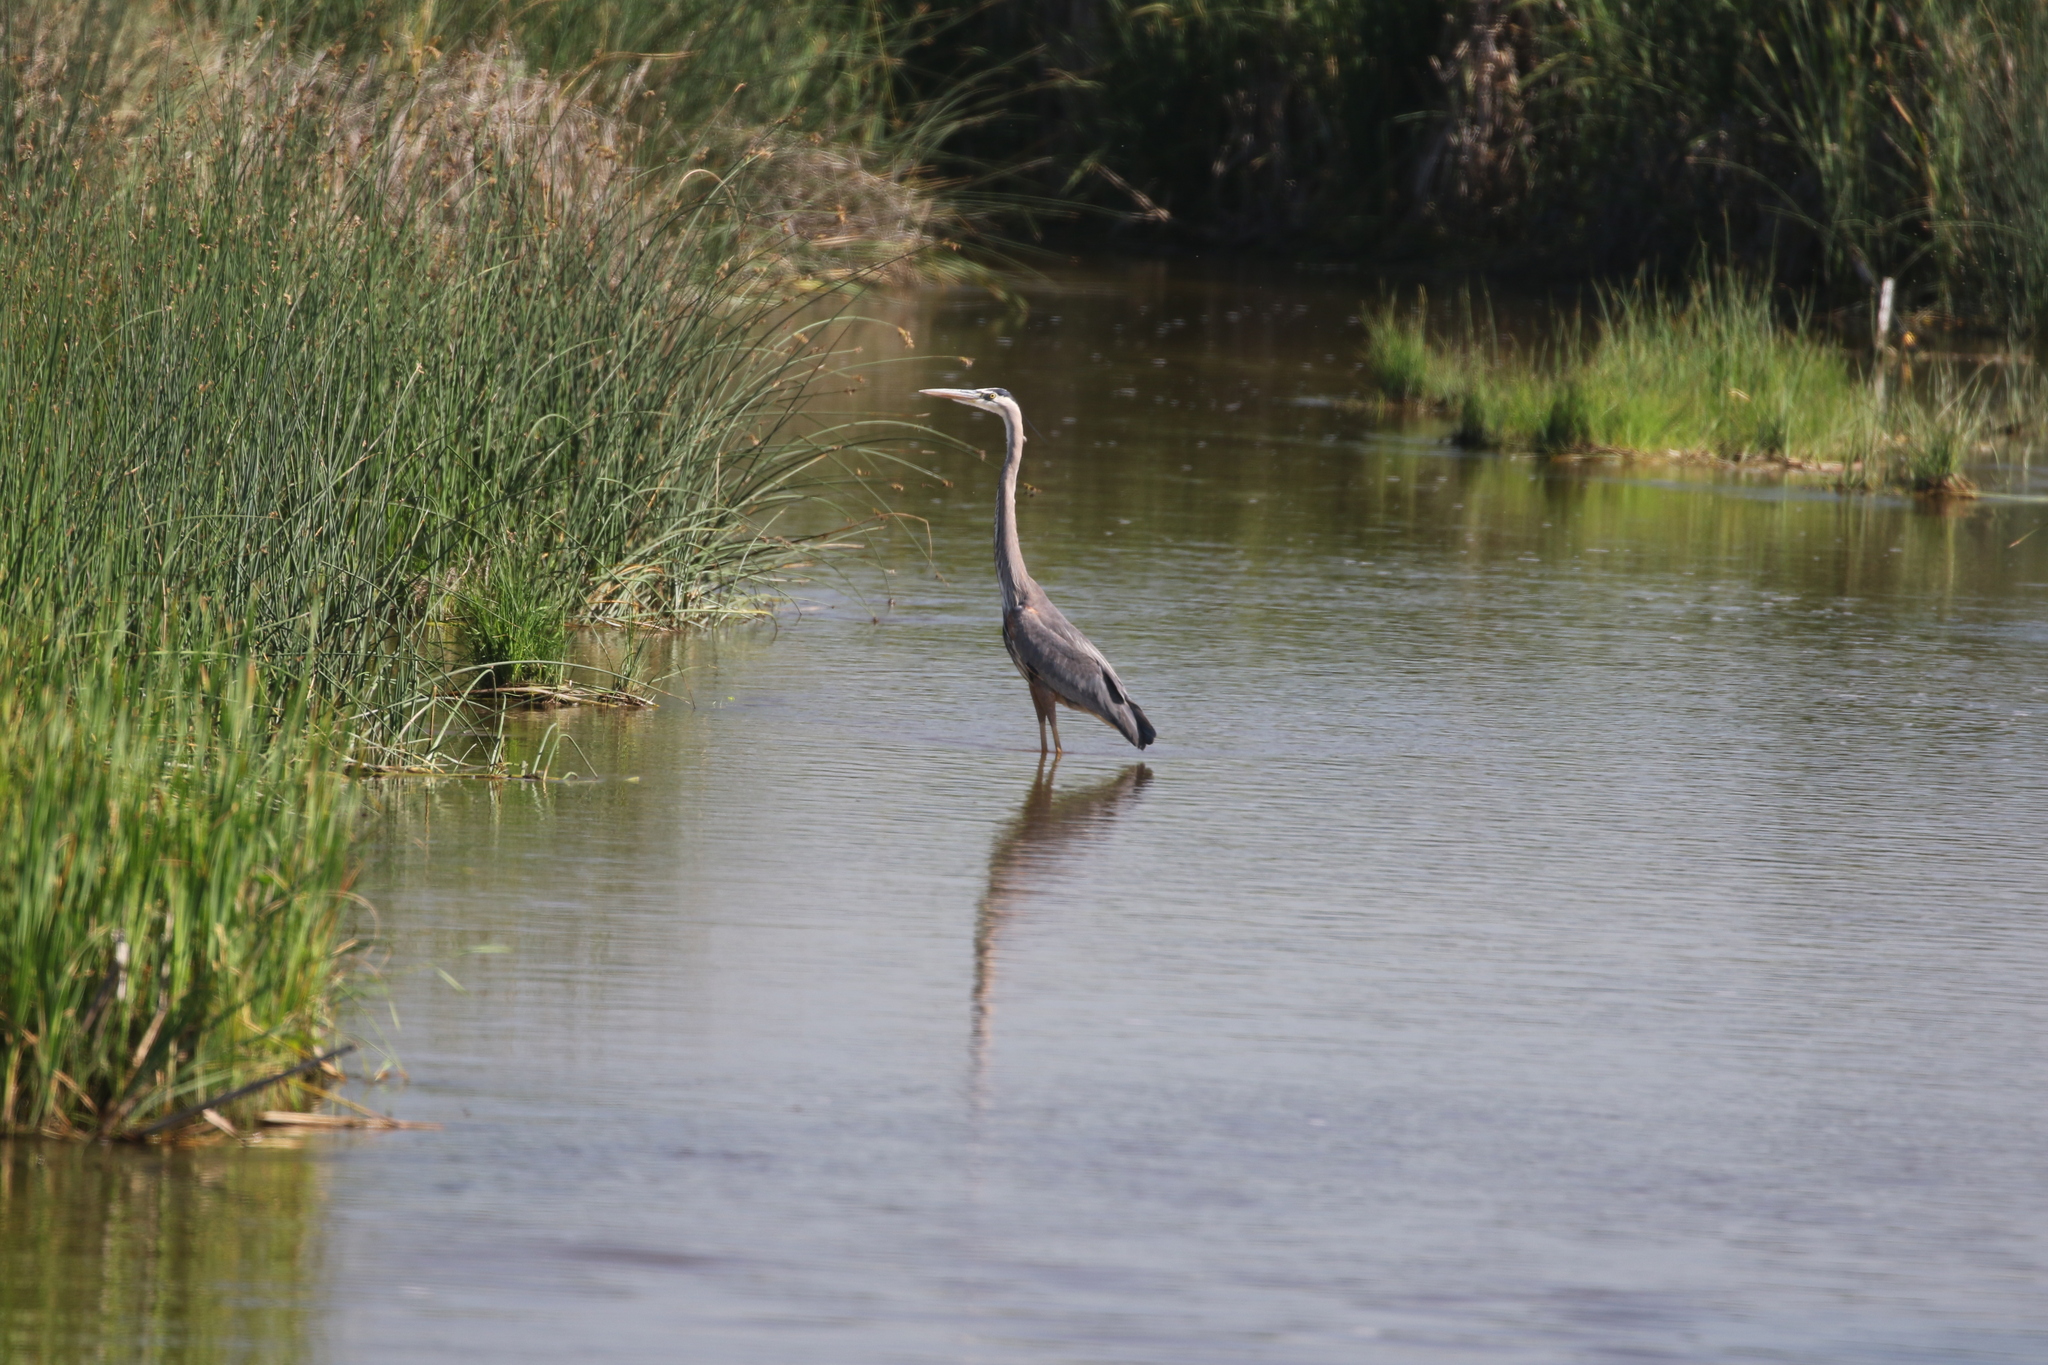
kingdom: Animalia
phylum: Chordata
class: Aves
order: Pelecaniformes
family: Ardeidae
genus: Ardea
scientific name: Ardea herodias
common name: Great blue heron
